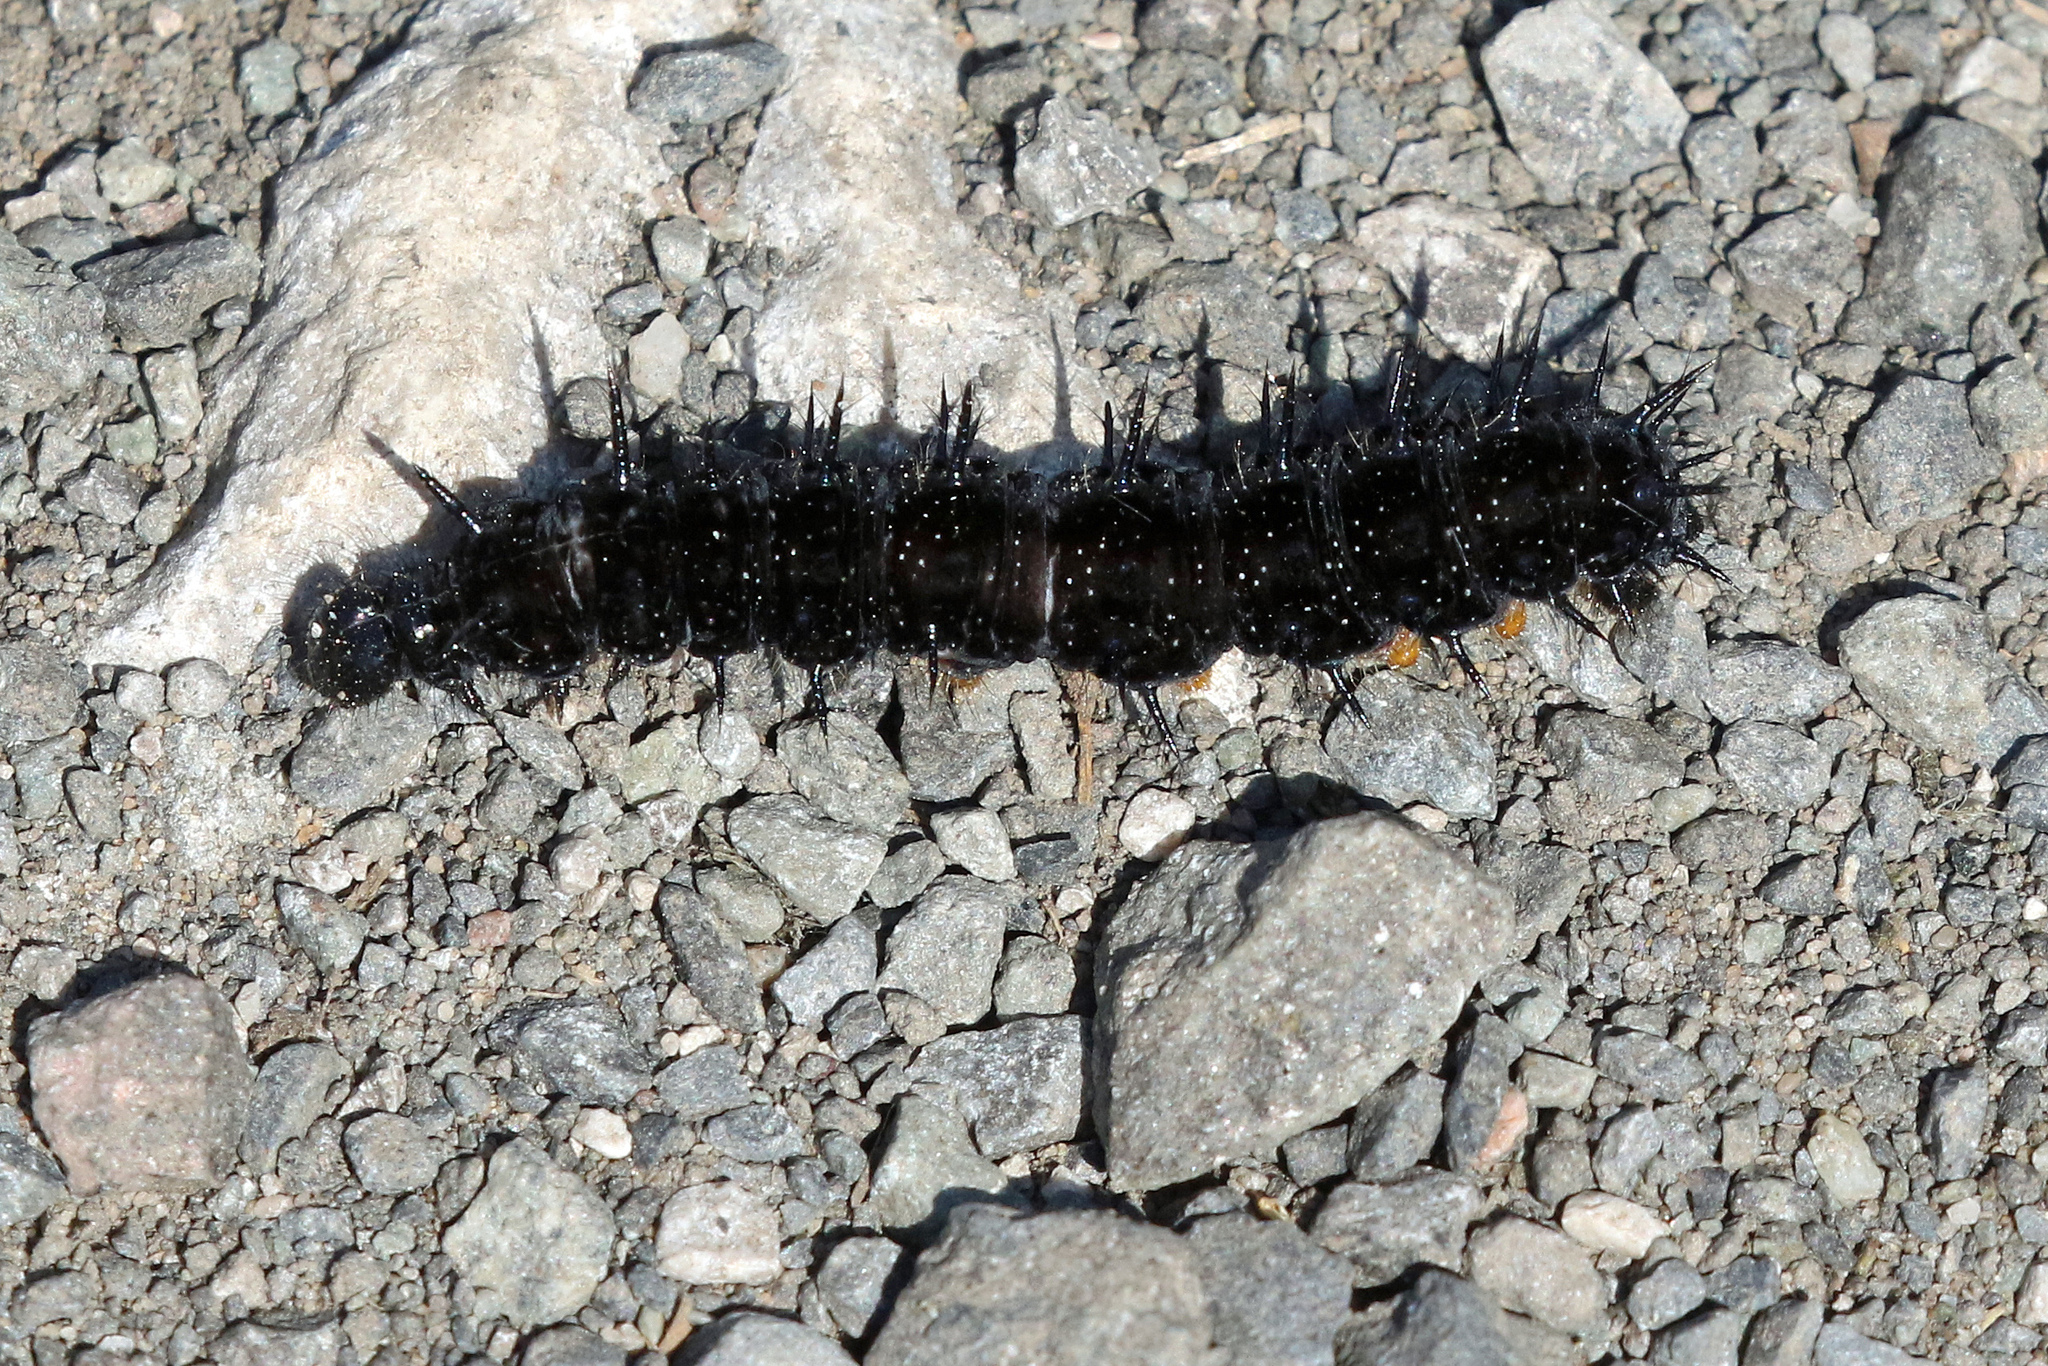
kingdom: Animalia
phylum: Arthropoda
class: Insecta
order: Lepidoptera
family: Nymphalidae
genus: Aglais
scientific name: Aglais io
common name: Peacock
